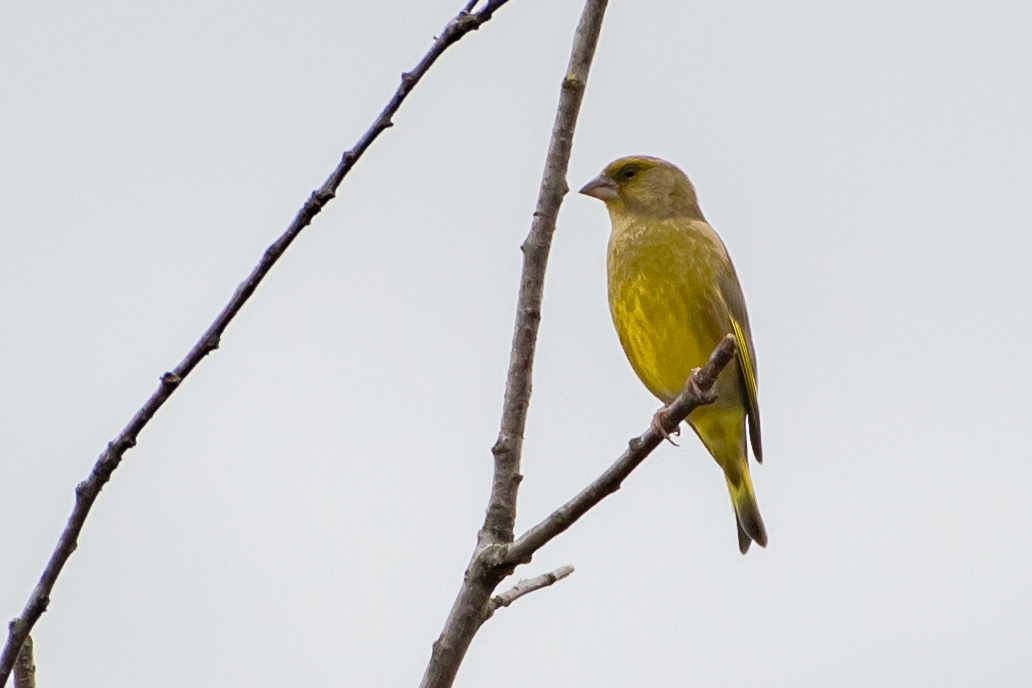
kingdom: Plantae
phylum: Tracheophyta
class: Liliopsida
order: Poales
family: Poaceae
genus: Chloris
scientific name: Chloris chloris
